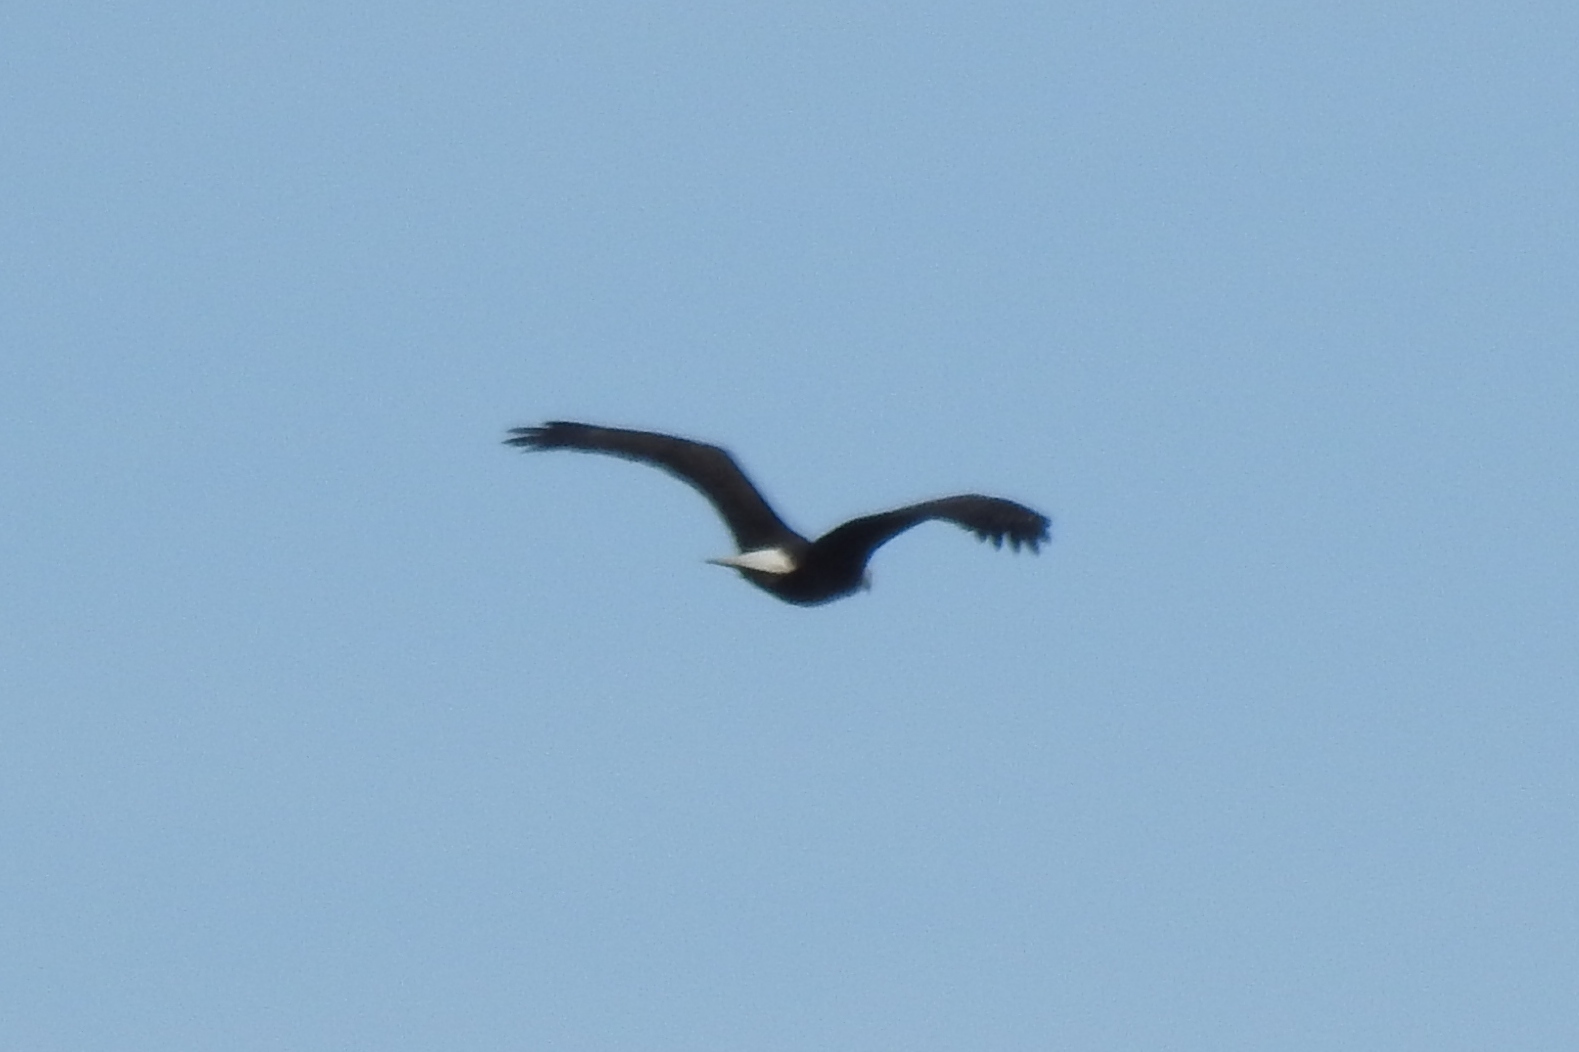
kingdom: Animalia
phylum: Chordata
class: Aves
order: Accipitriformes
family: Accipitridae
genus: Haliaeetus
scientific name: Haliaeetus leucocephalus
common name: Bald eagle
